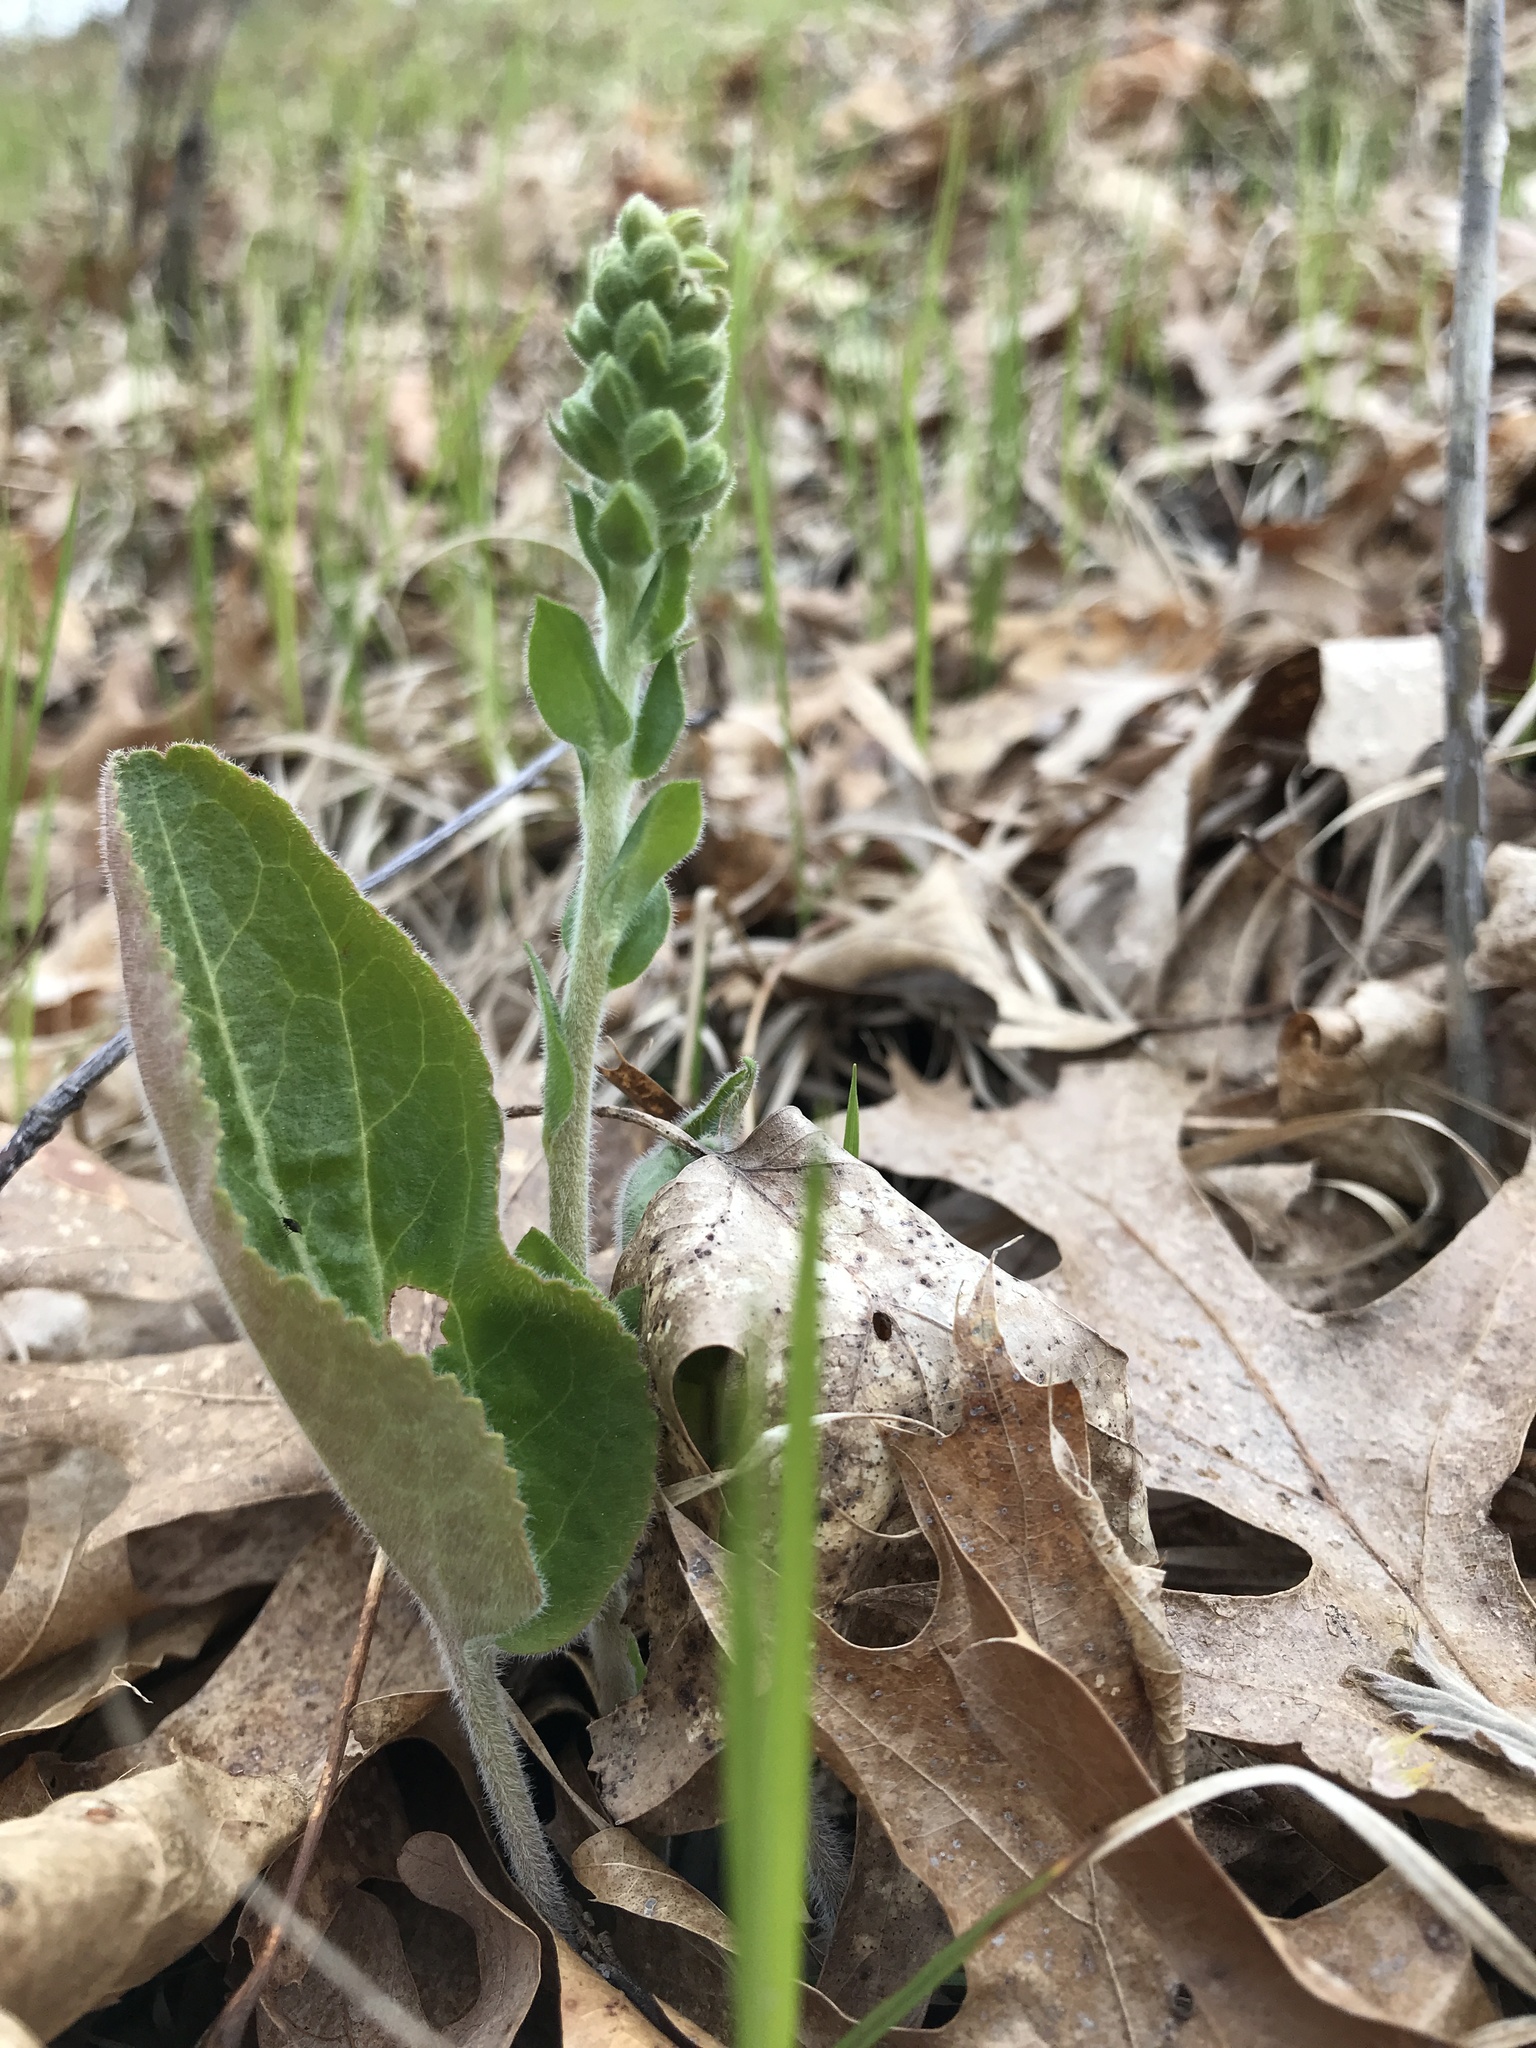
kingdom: Plantae
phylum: Tracheophyta
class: Magnoliopsida
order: Lamiales
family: Plantaginaceae
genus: Synthyris
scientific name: Synthyris bullii
